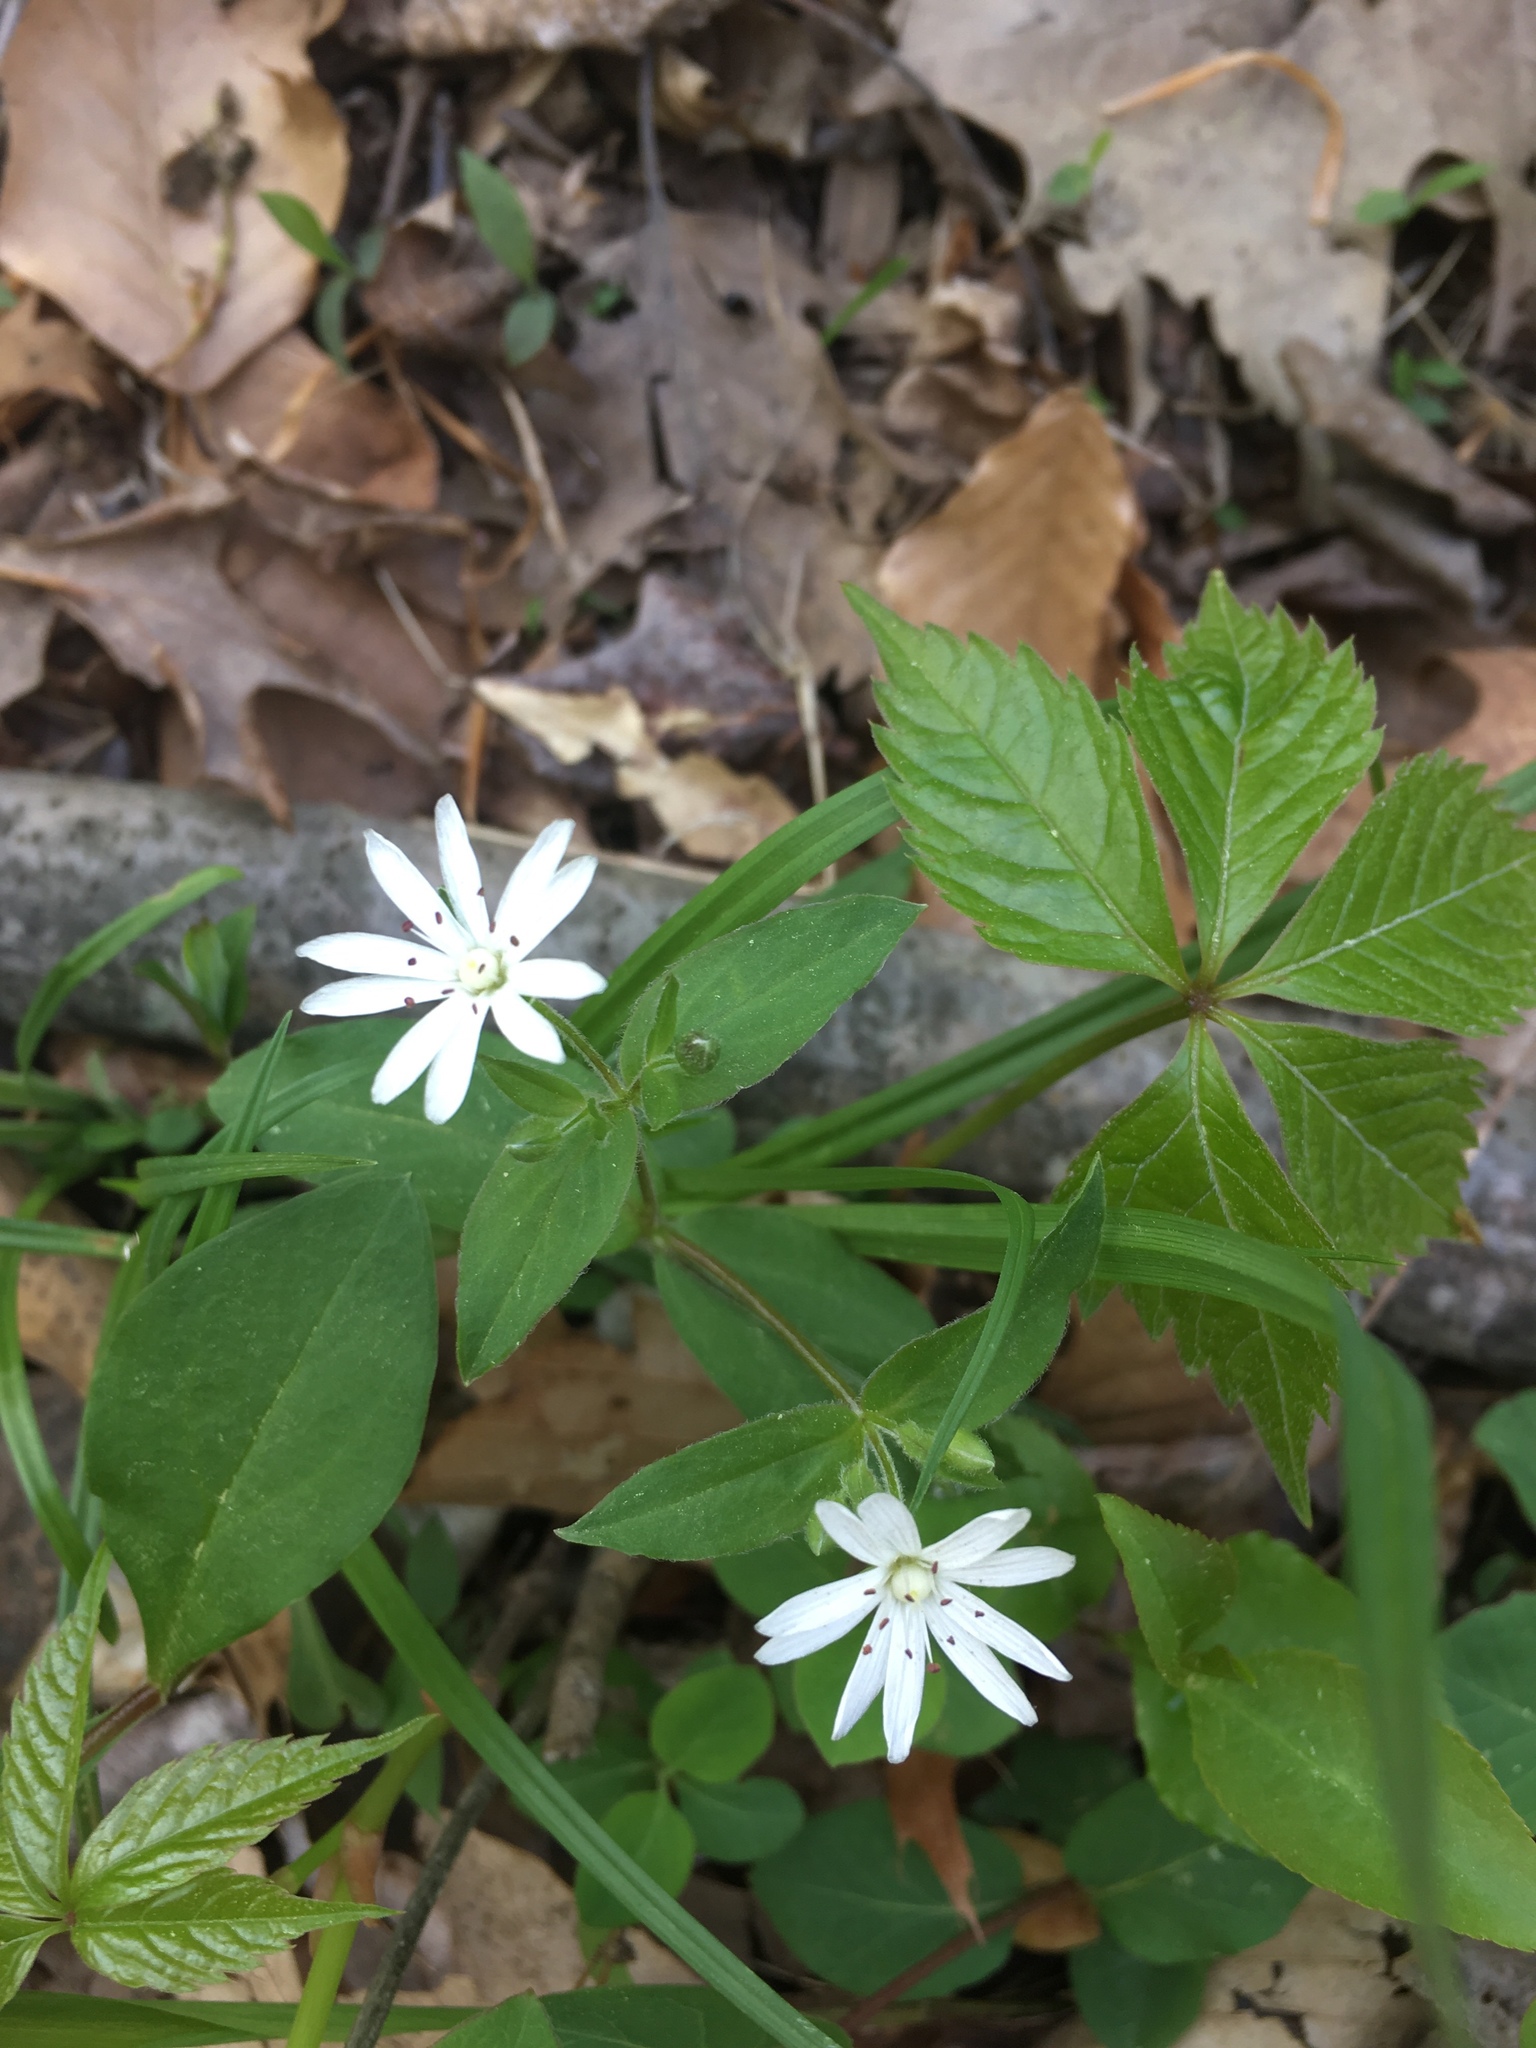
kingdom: Plantae
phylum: Tracheophyta
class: Magnoliopsida
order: Caryophyllales
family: Caryophyllaceae
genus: Stellaria
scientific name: Stellaria pubera
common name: Star chickweed
